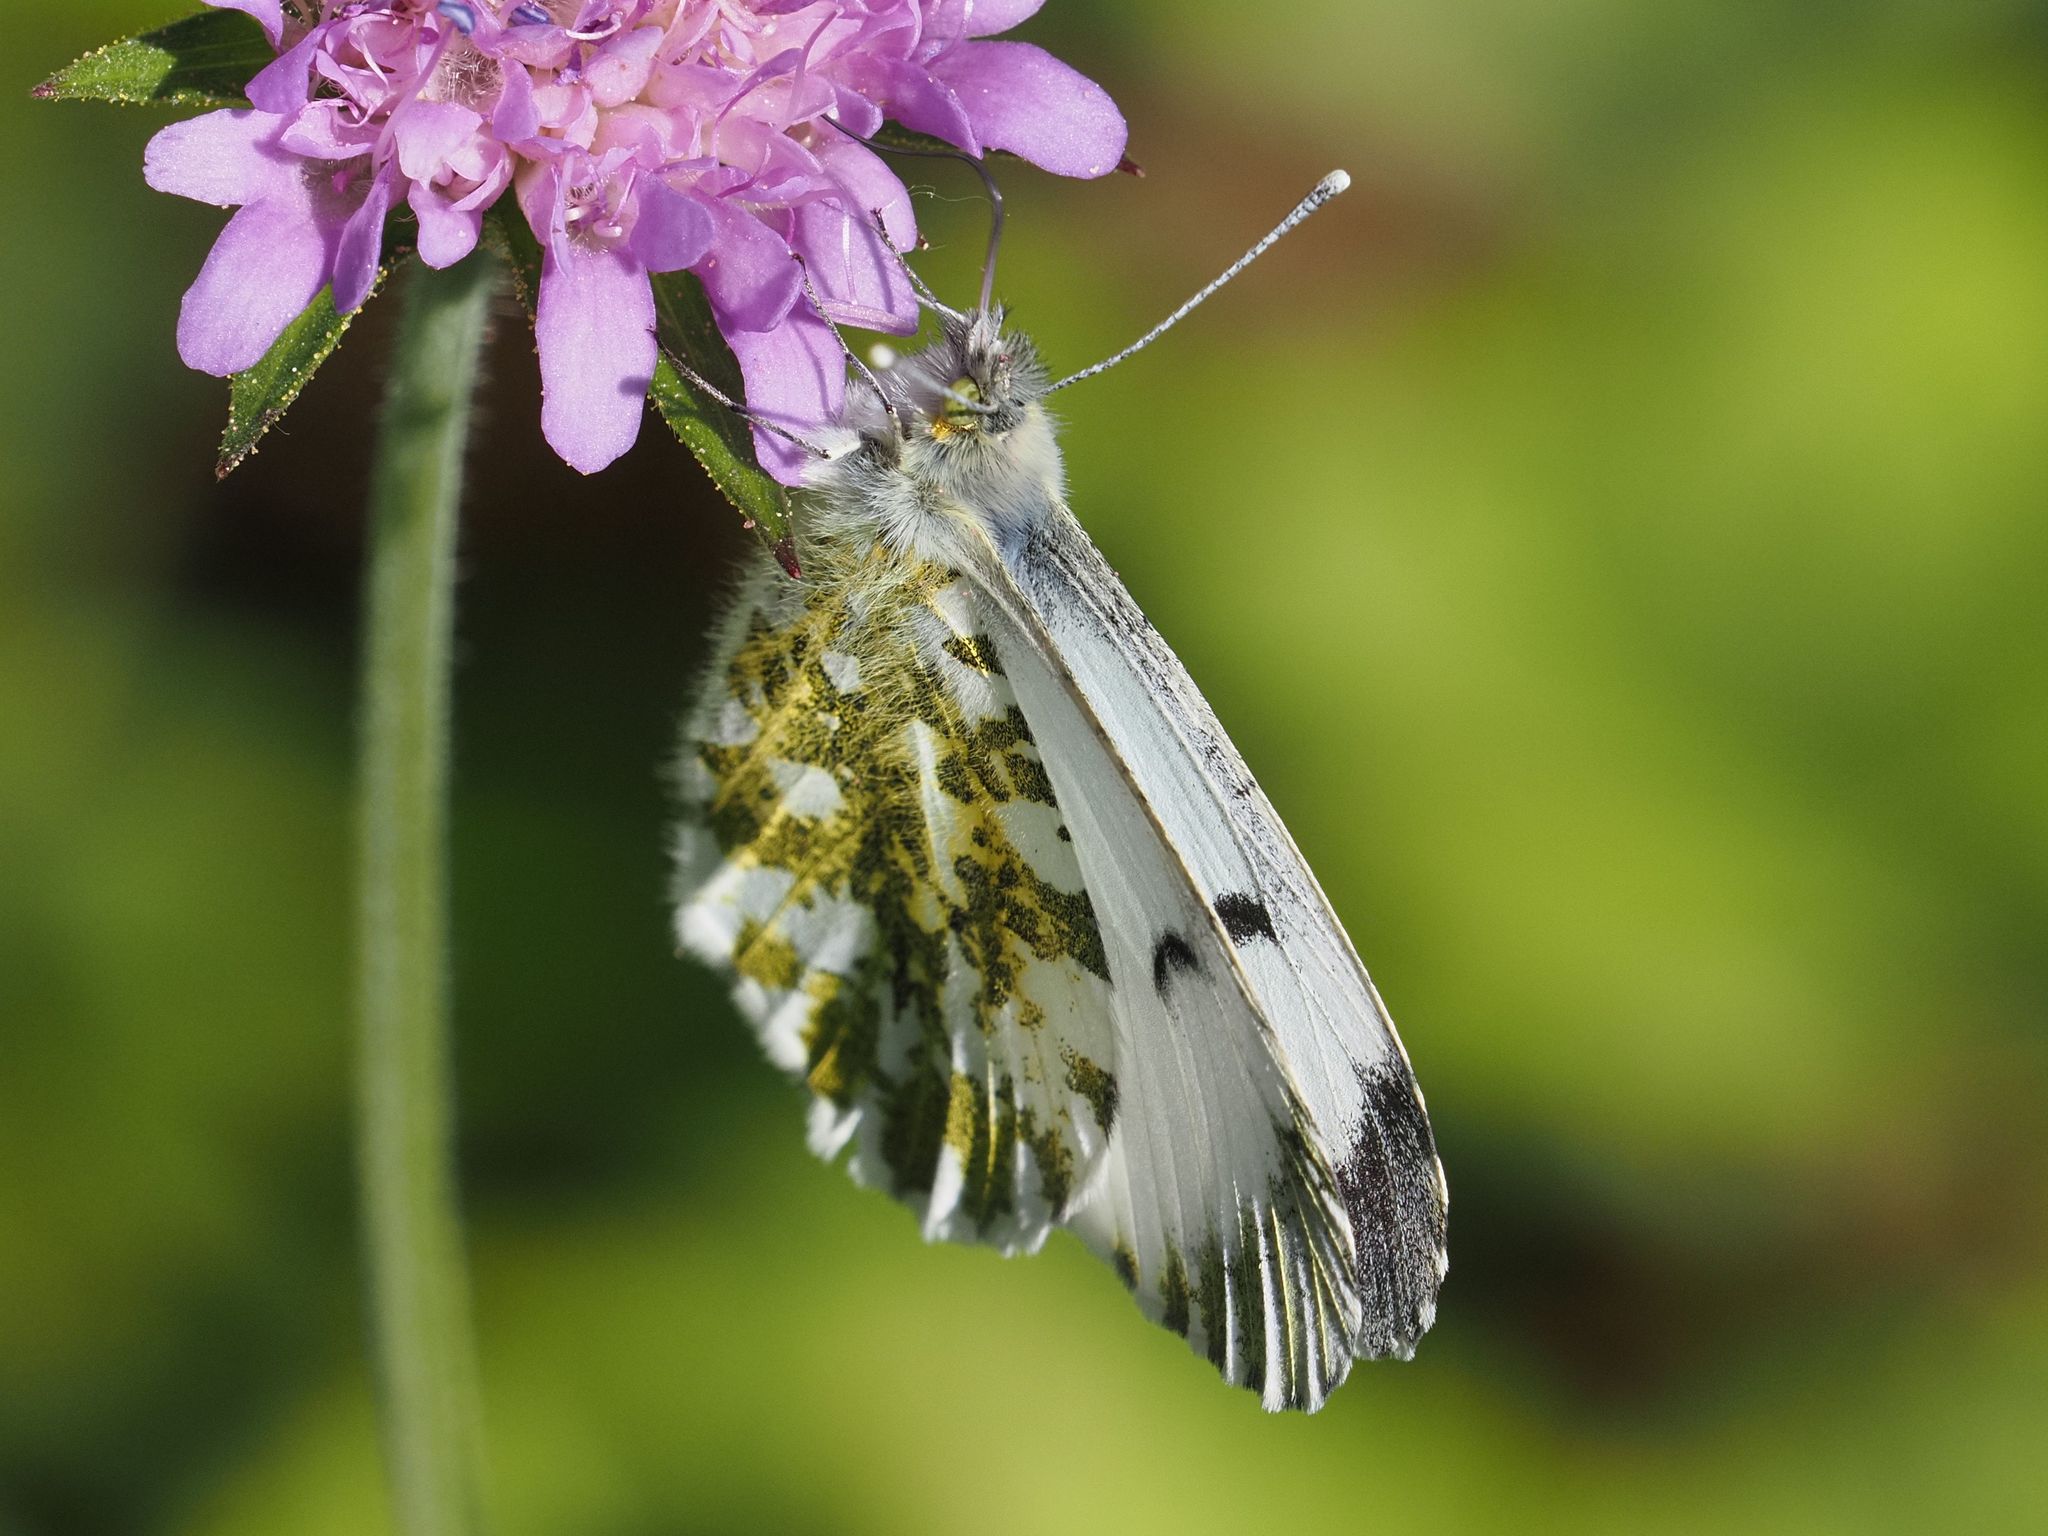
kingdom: Animalia
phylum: Arthropoda
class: Insecta
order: Lepidoptera
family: Pieridae
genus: Anthocharis
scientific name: Anthocharis cardamines
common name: Orange-tip
